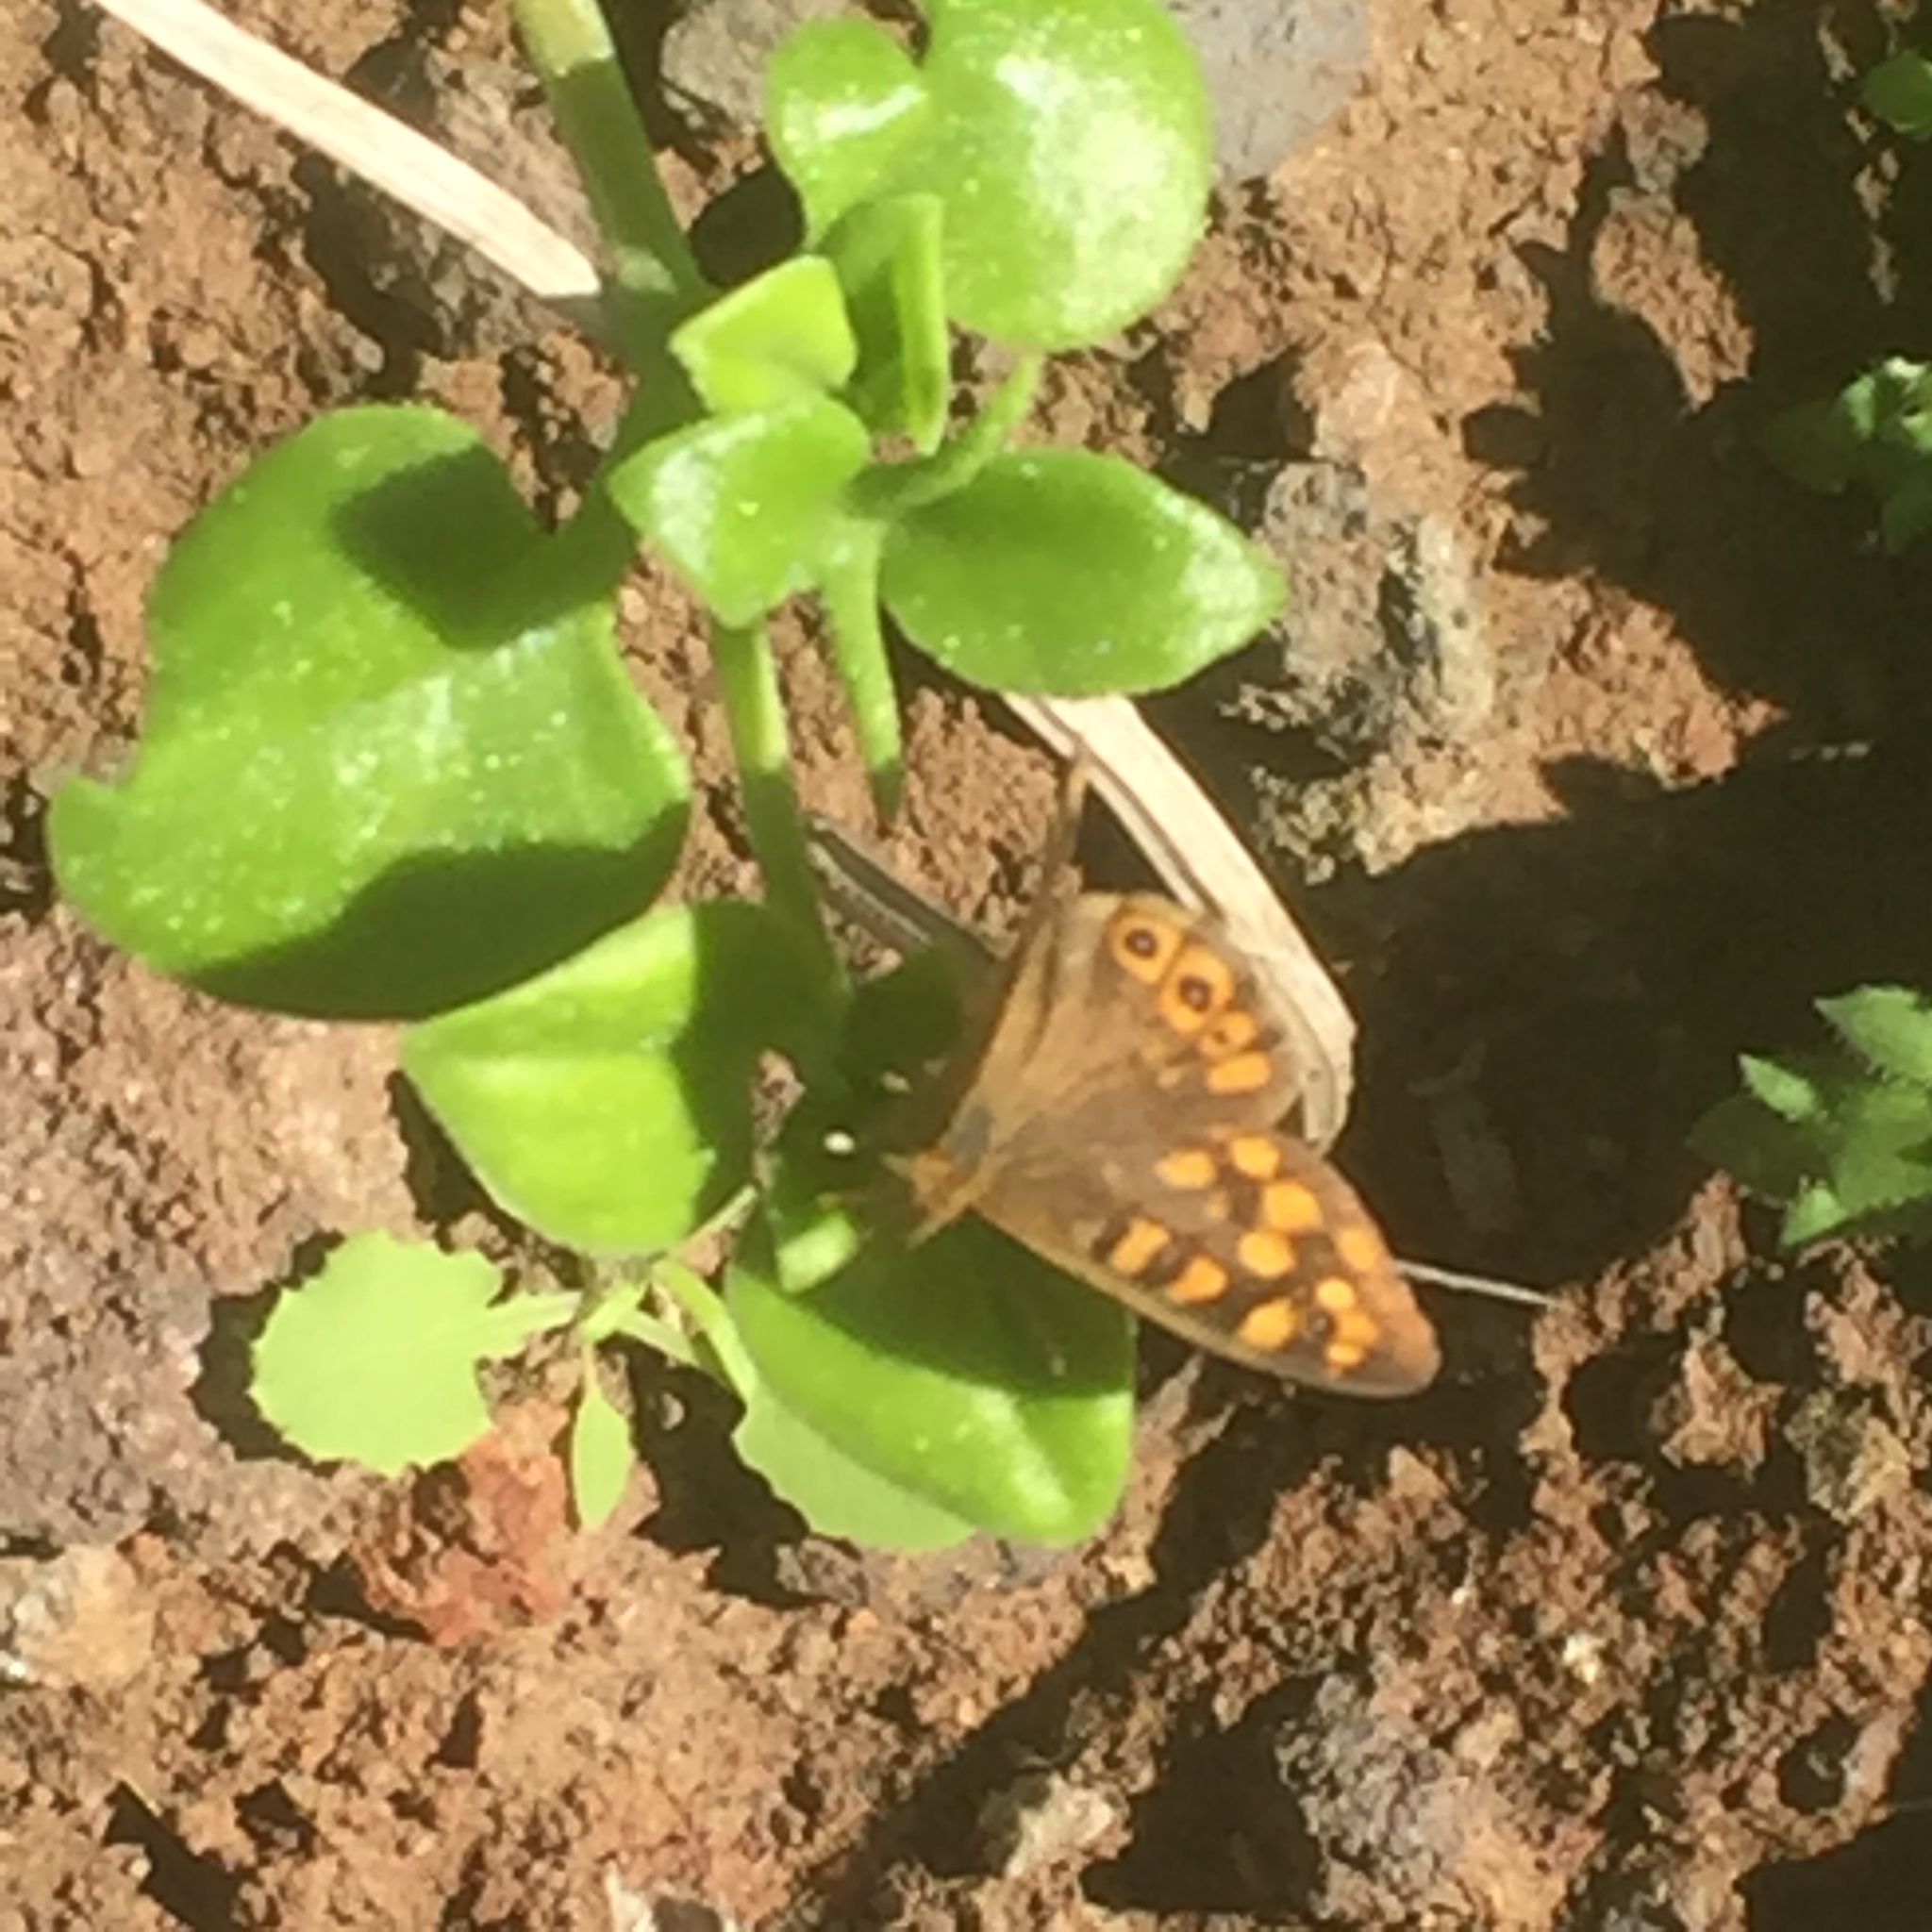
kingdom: Plantae
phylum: Tracheophyta
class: Magnoliopsida
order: Caryophyllales
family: Aizoaceae
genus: Mesembryanthemum
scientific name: Mesembryanthemum cordifolium
